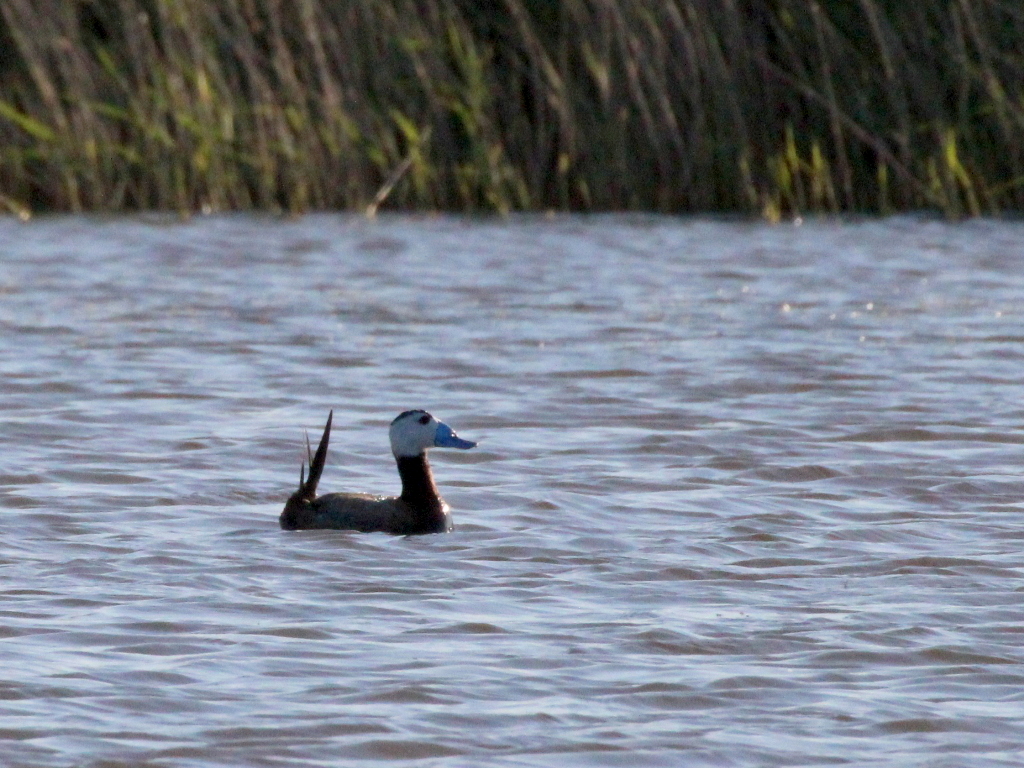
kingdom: Animalia
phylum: Chordata
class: Aves
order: Anseriformes
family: Anatidae
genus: Oxyura
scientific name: Oxyura leucocephala
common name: White-headed duck
